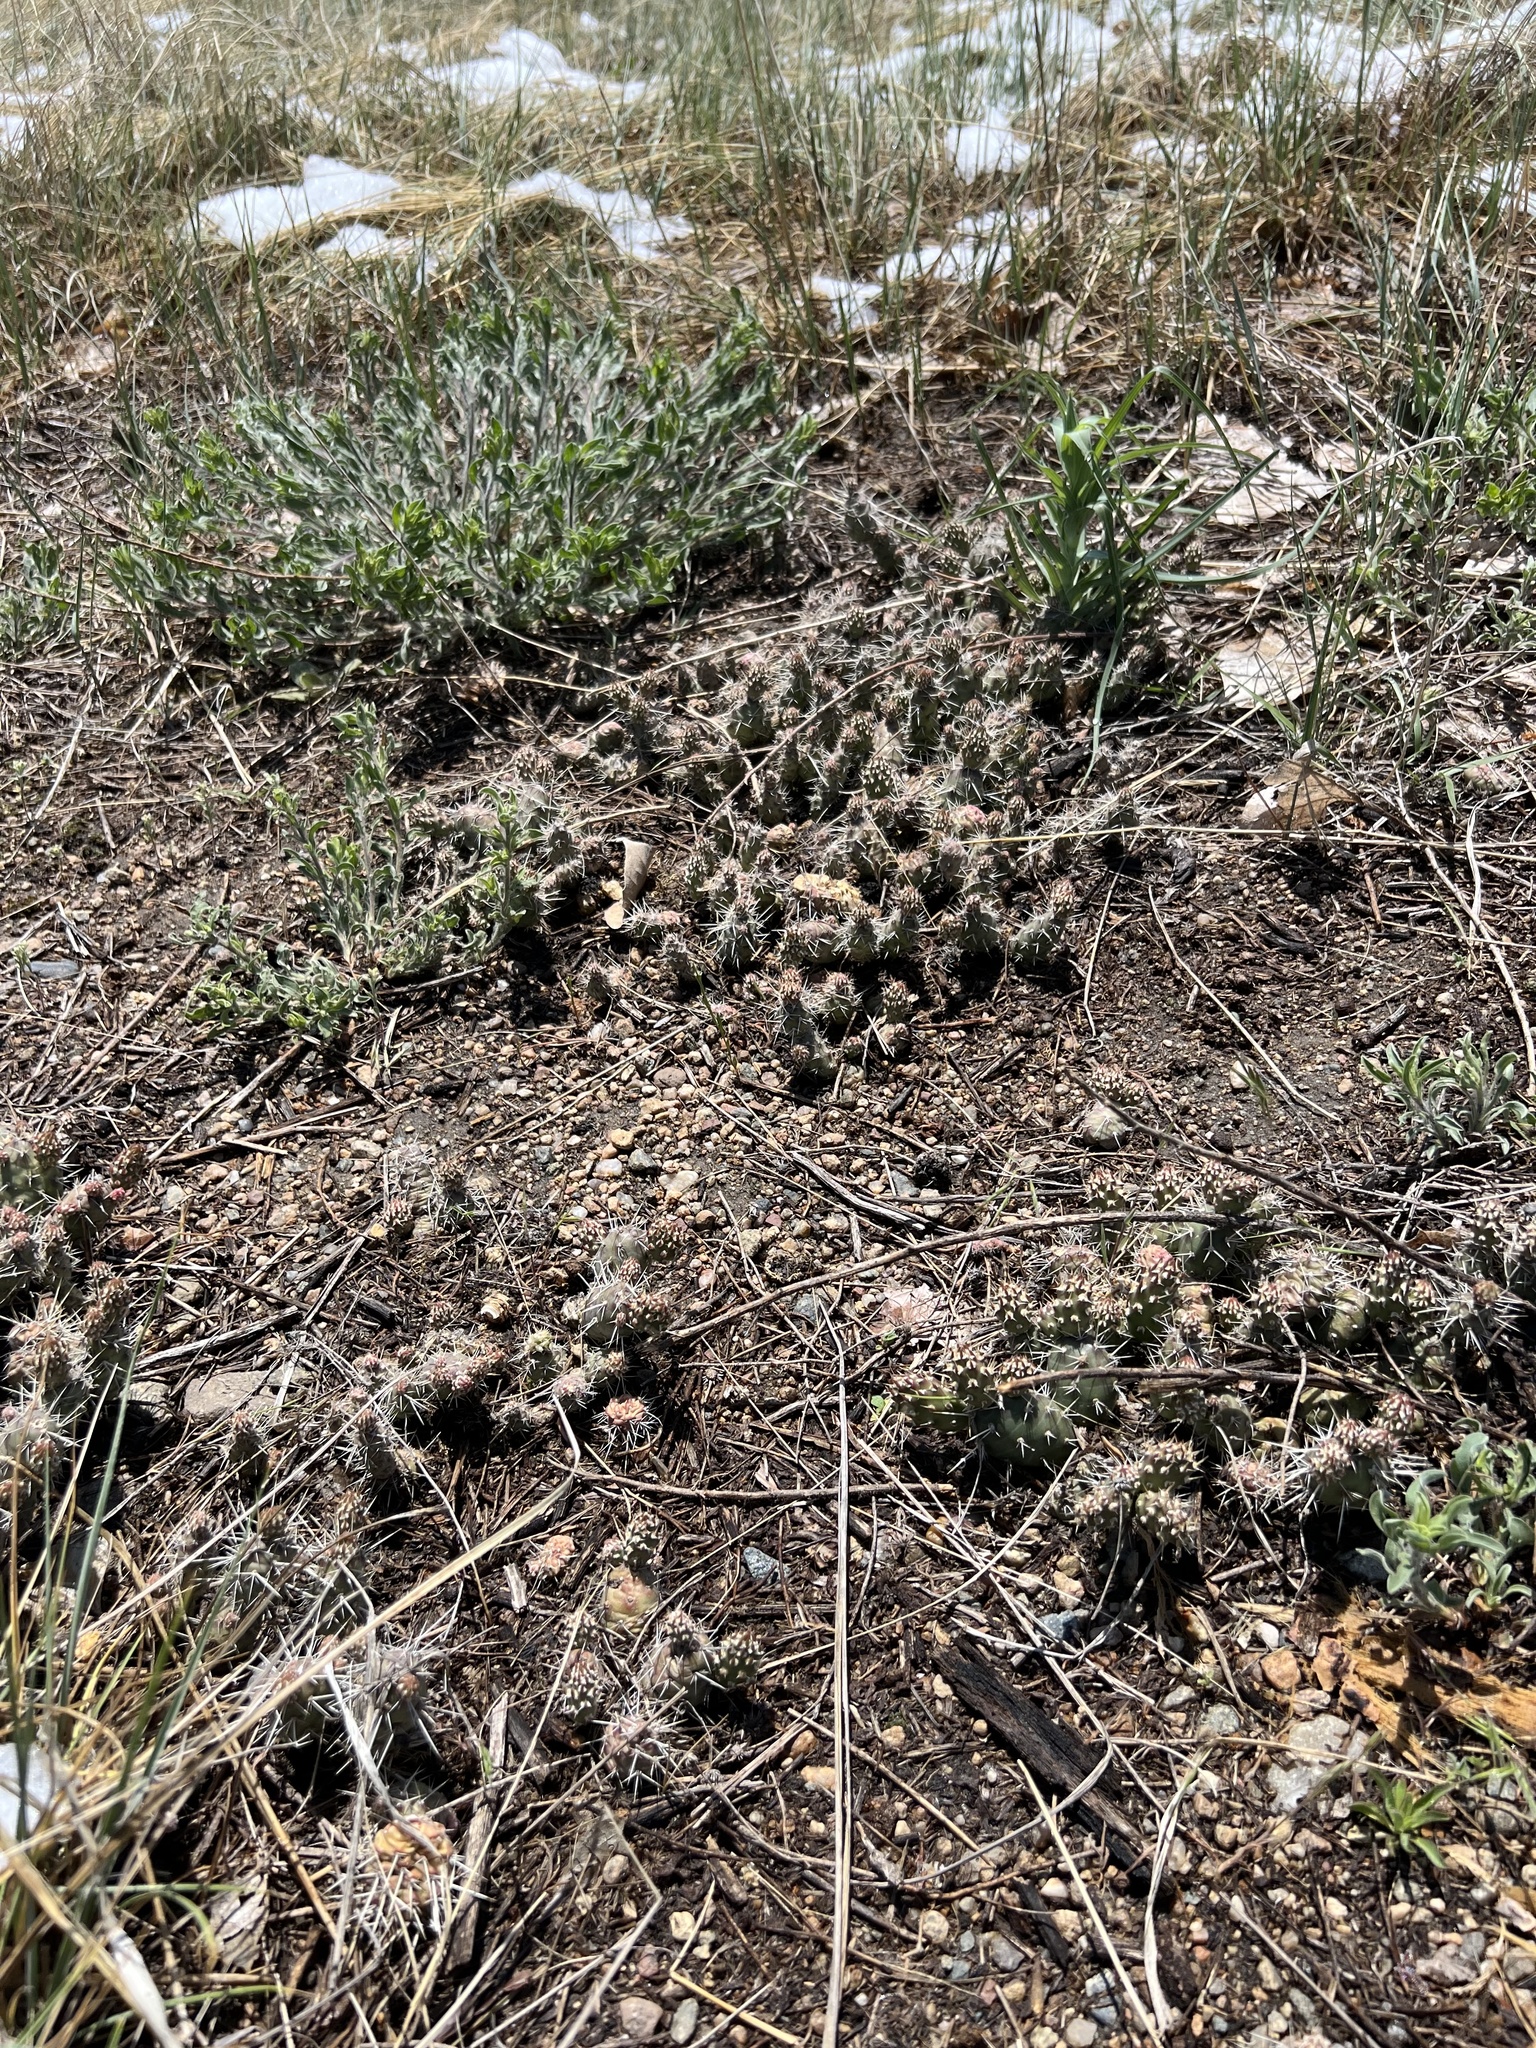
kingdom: Plantae
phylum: Tracheophyta
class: Magnoliopsida
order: Caryophyllales
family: Cactaceae
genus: Opuntia
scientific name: Opuntia fragilis
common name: Brittle cactus
